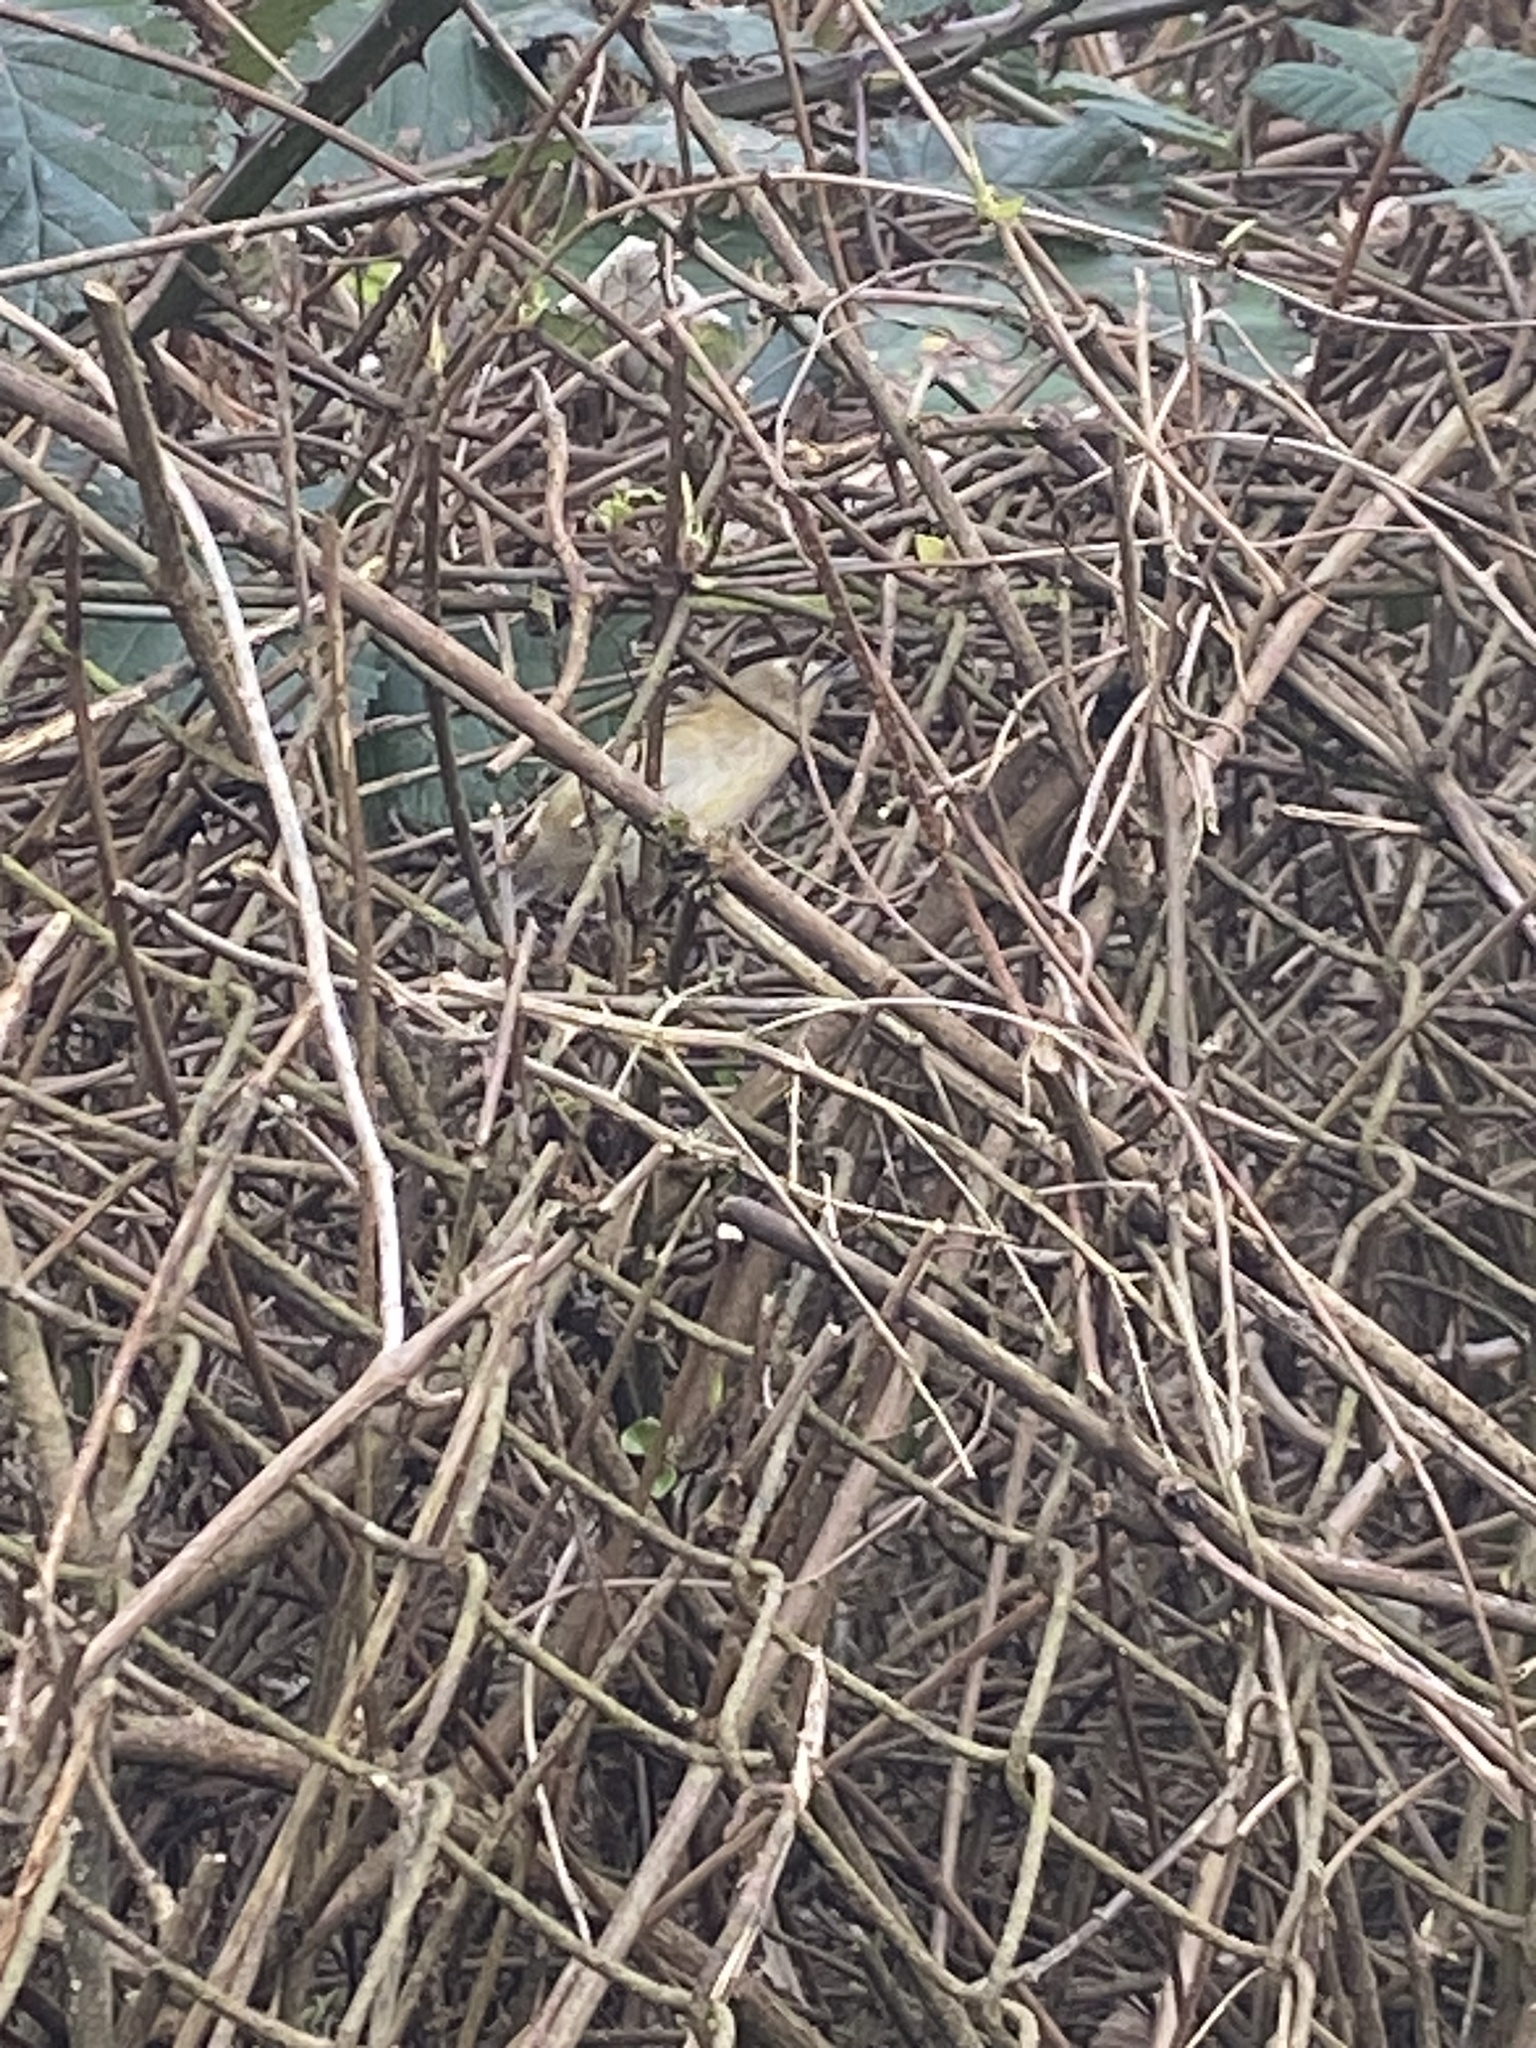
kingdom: Animalia
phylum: Chordata
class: Aves
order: Passeriformes
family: Regulidae
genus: Regulus
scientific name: Regulus regulus
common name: Goldcrest
